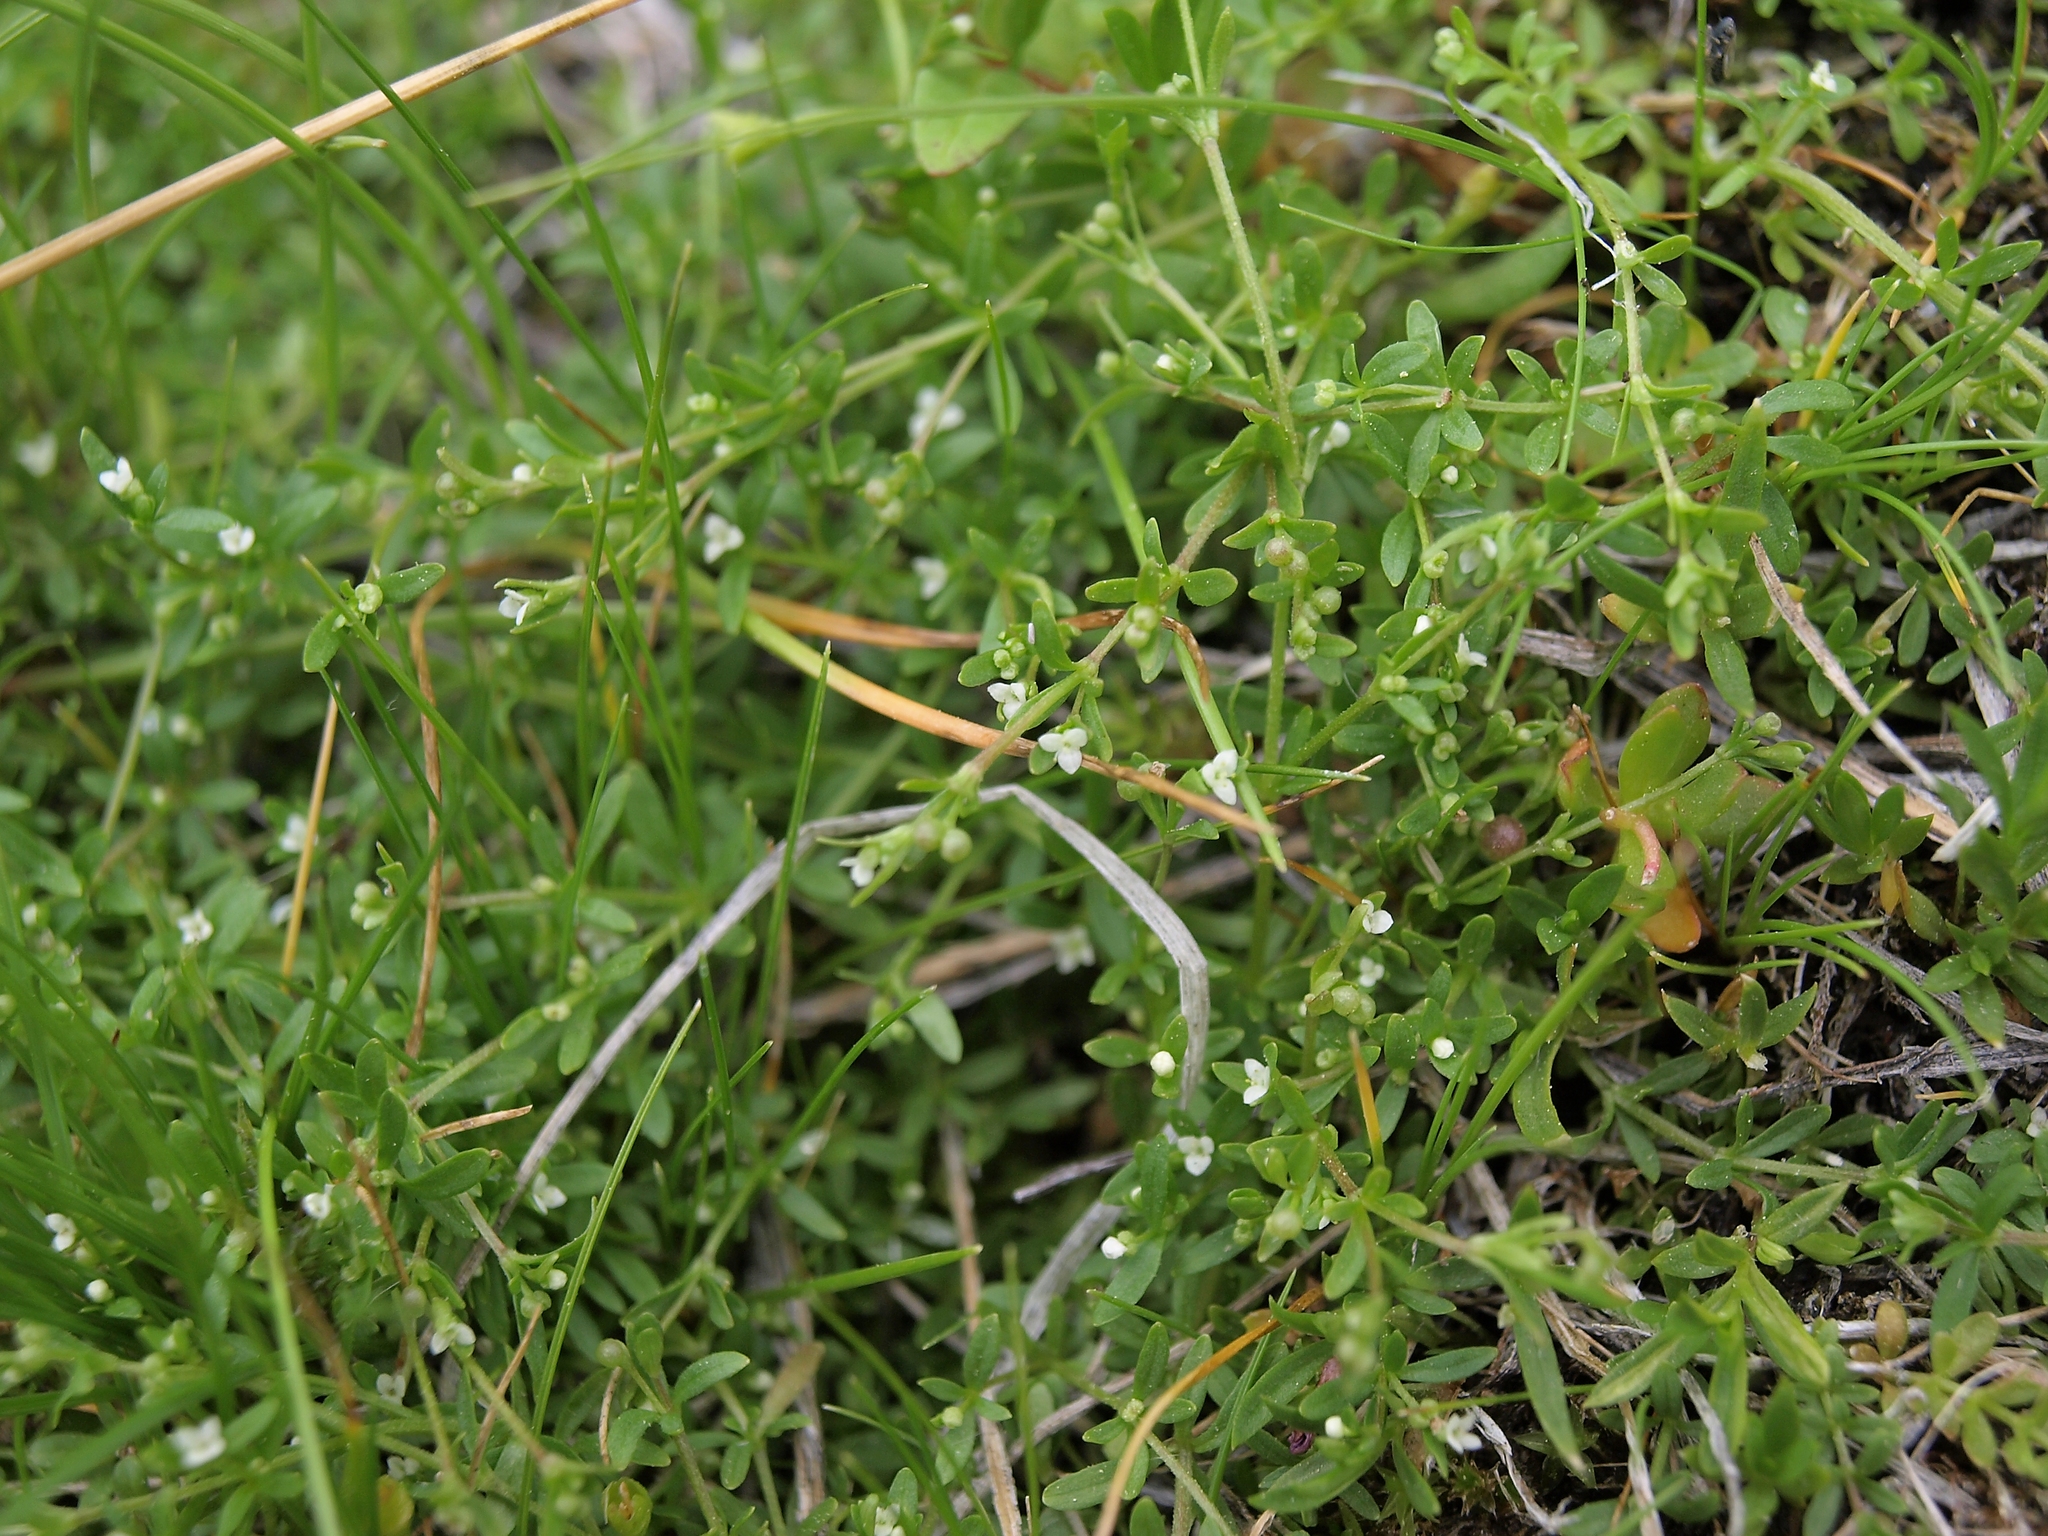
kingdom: Plantae
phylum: Tracheophyta
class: Magnoliopsida
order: Gentianales
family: Rubiaceae
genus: Galium
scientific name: Galium trifidum
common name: Small bedstraw
